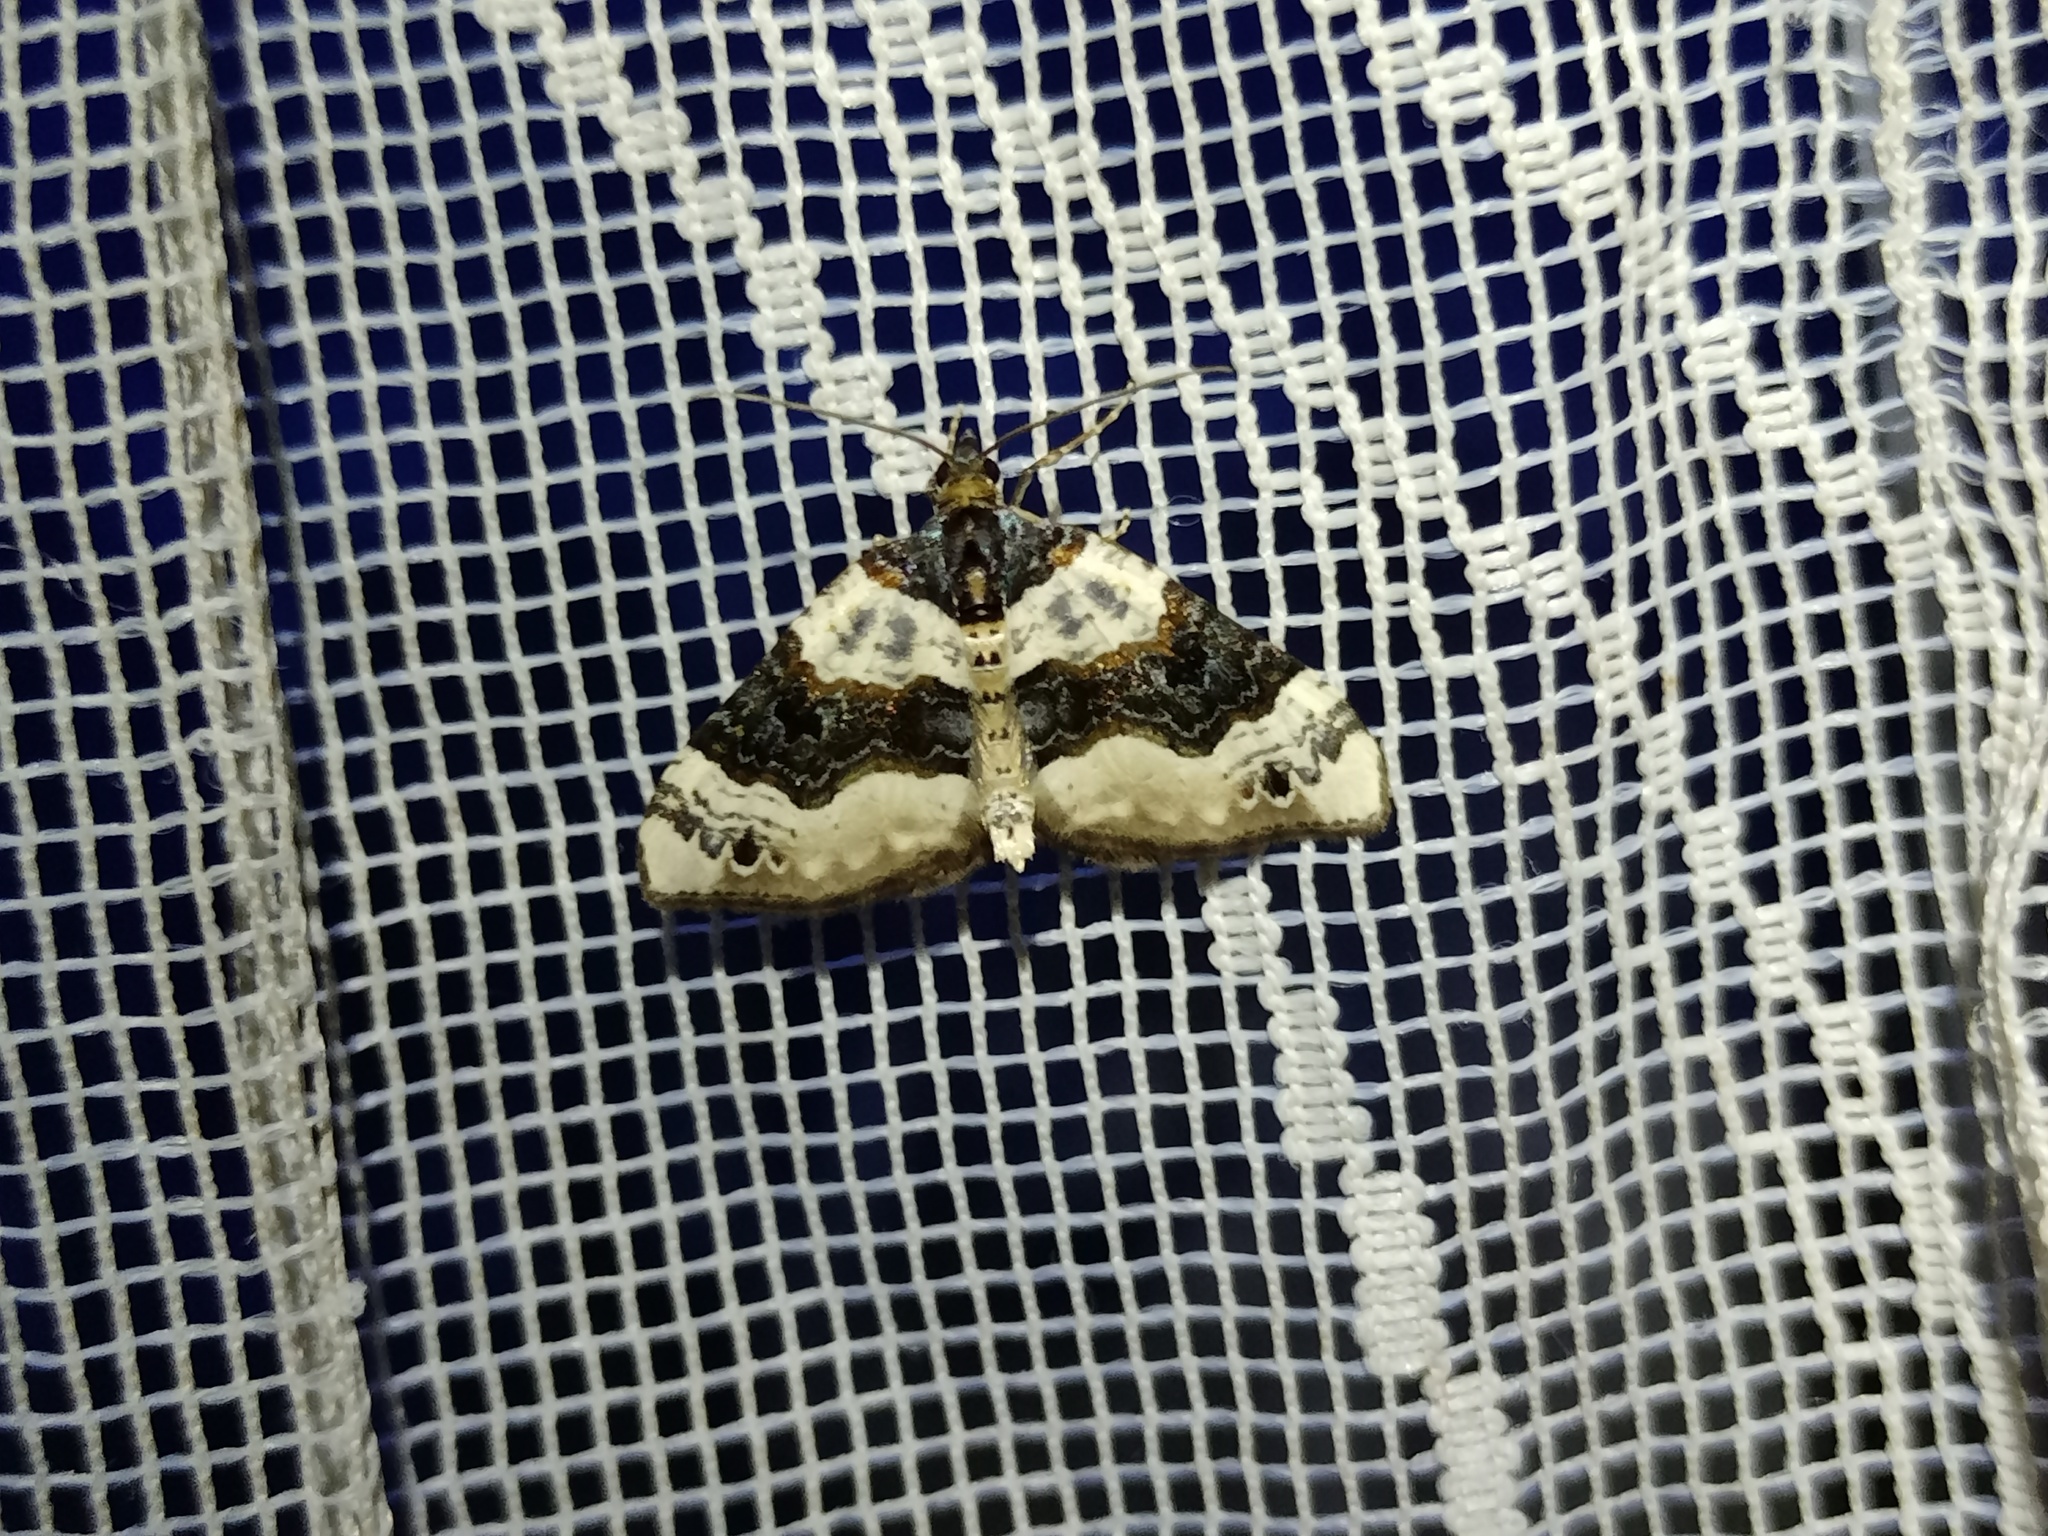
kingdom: Animalia
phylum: Arthropoda
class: Insecta
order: Lepidoptera
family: Geometridae
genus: Cosmorhoe
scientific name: Cosmorhoe ocellata
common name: Purple bar
